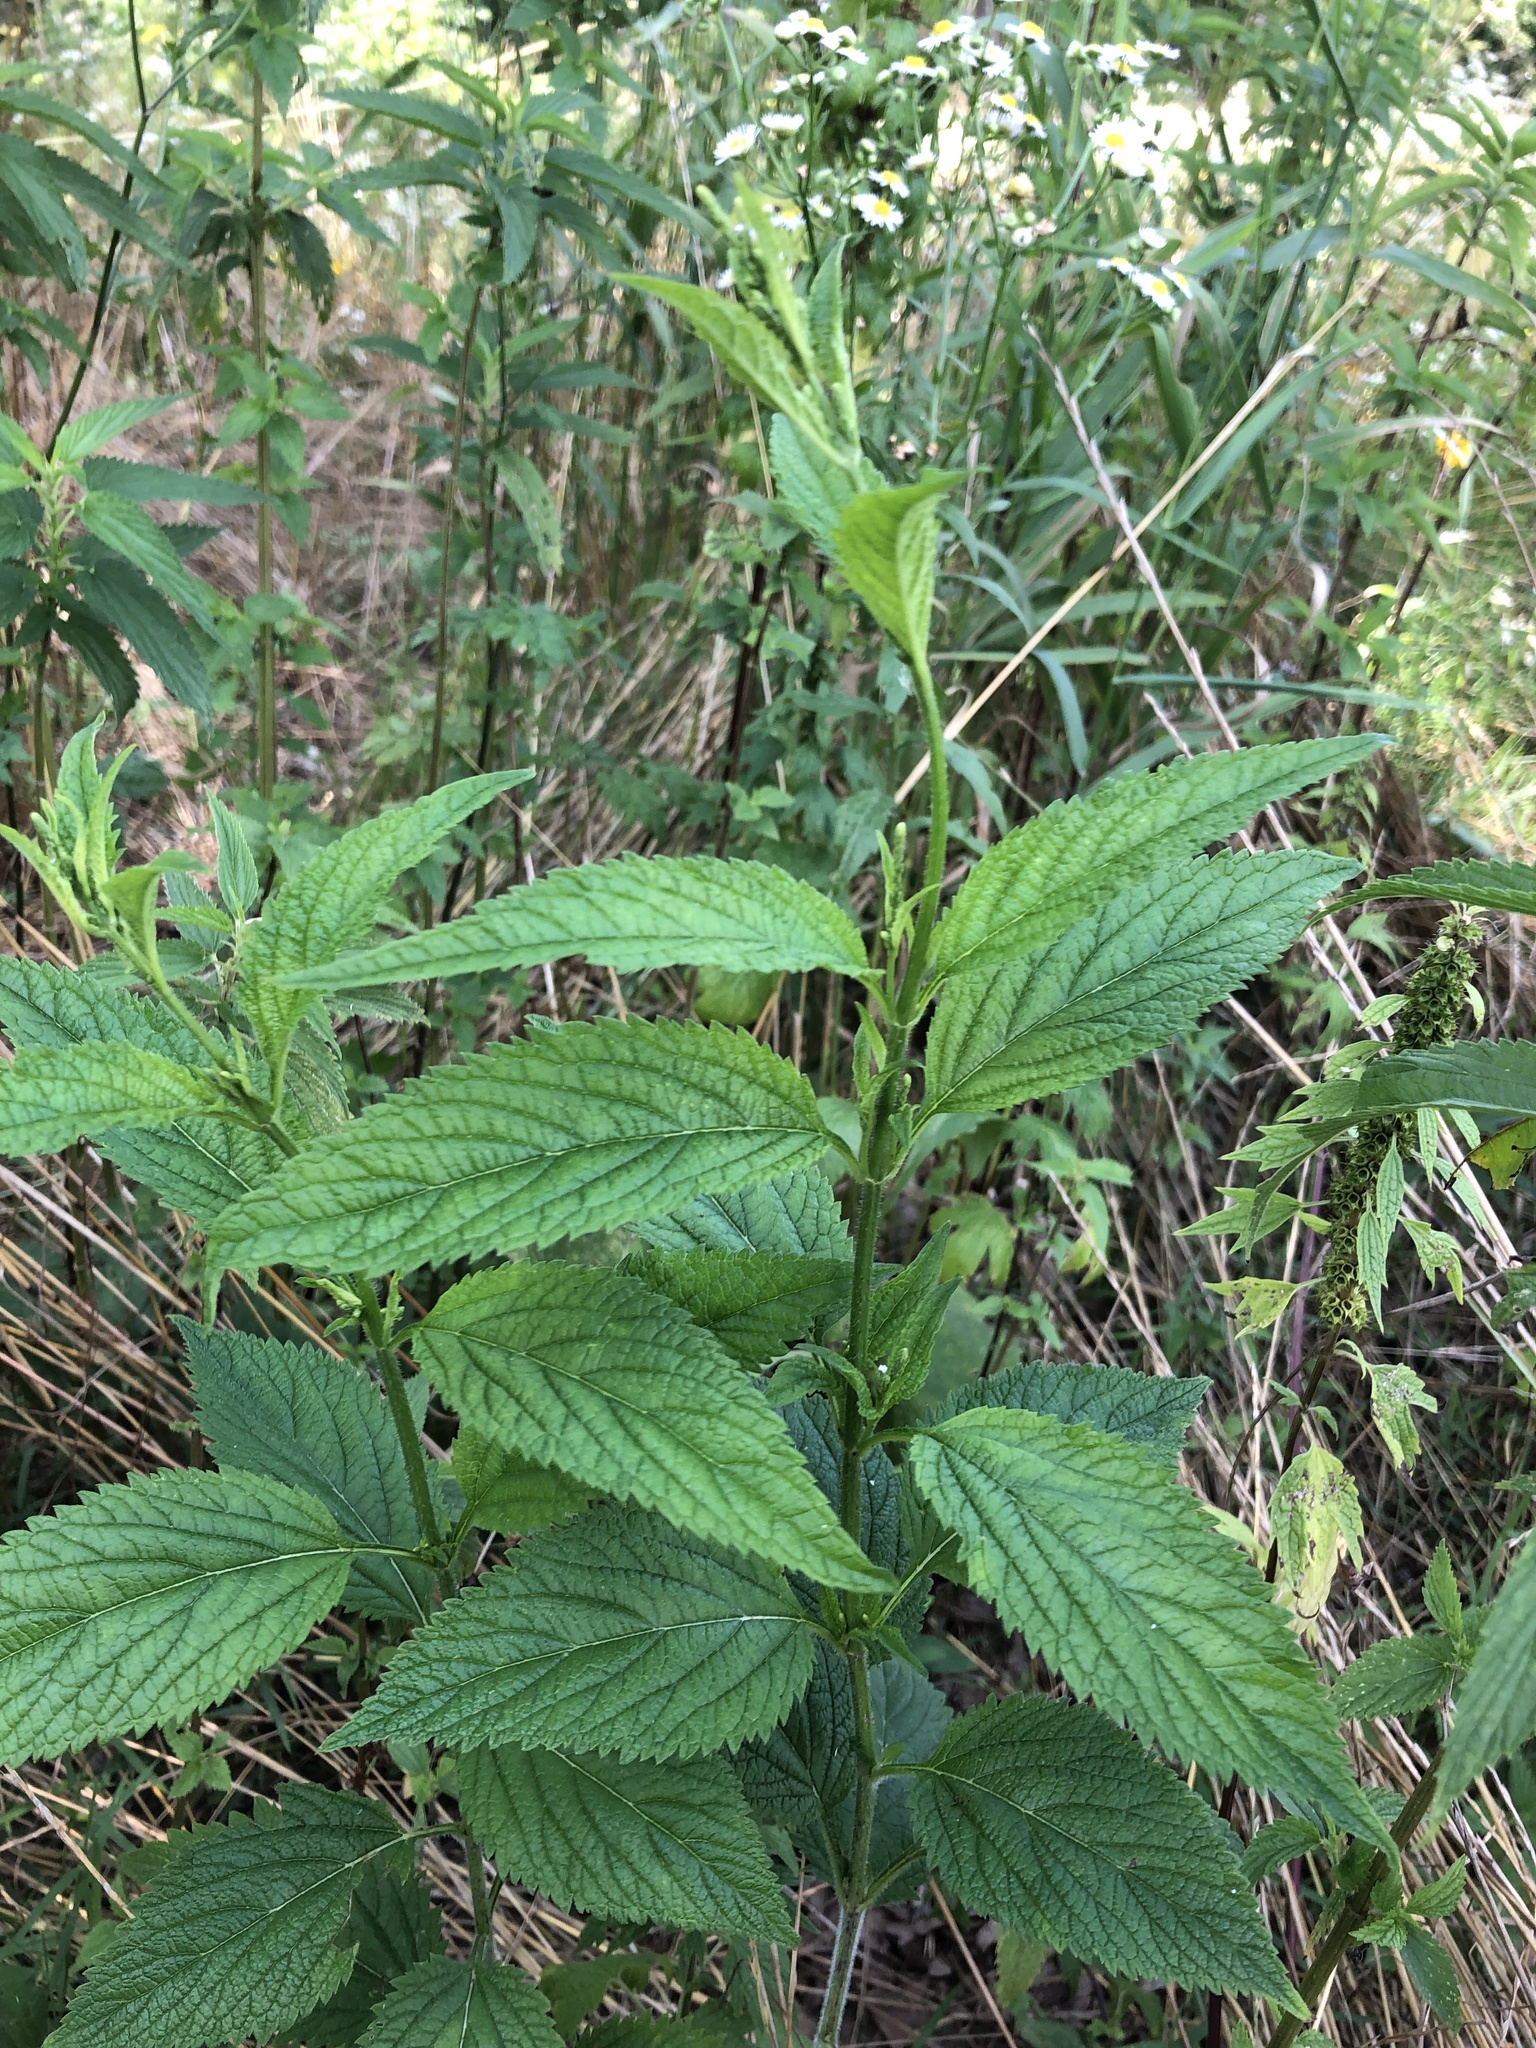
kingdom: Plantae
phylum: Tracheophyta
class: Magnoliopsida
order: Lamiales
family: Verbenaceae
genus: Verbena
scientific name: Verbena urticifolia
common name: Nettle-leaved vervain
